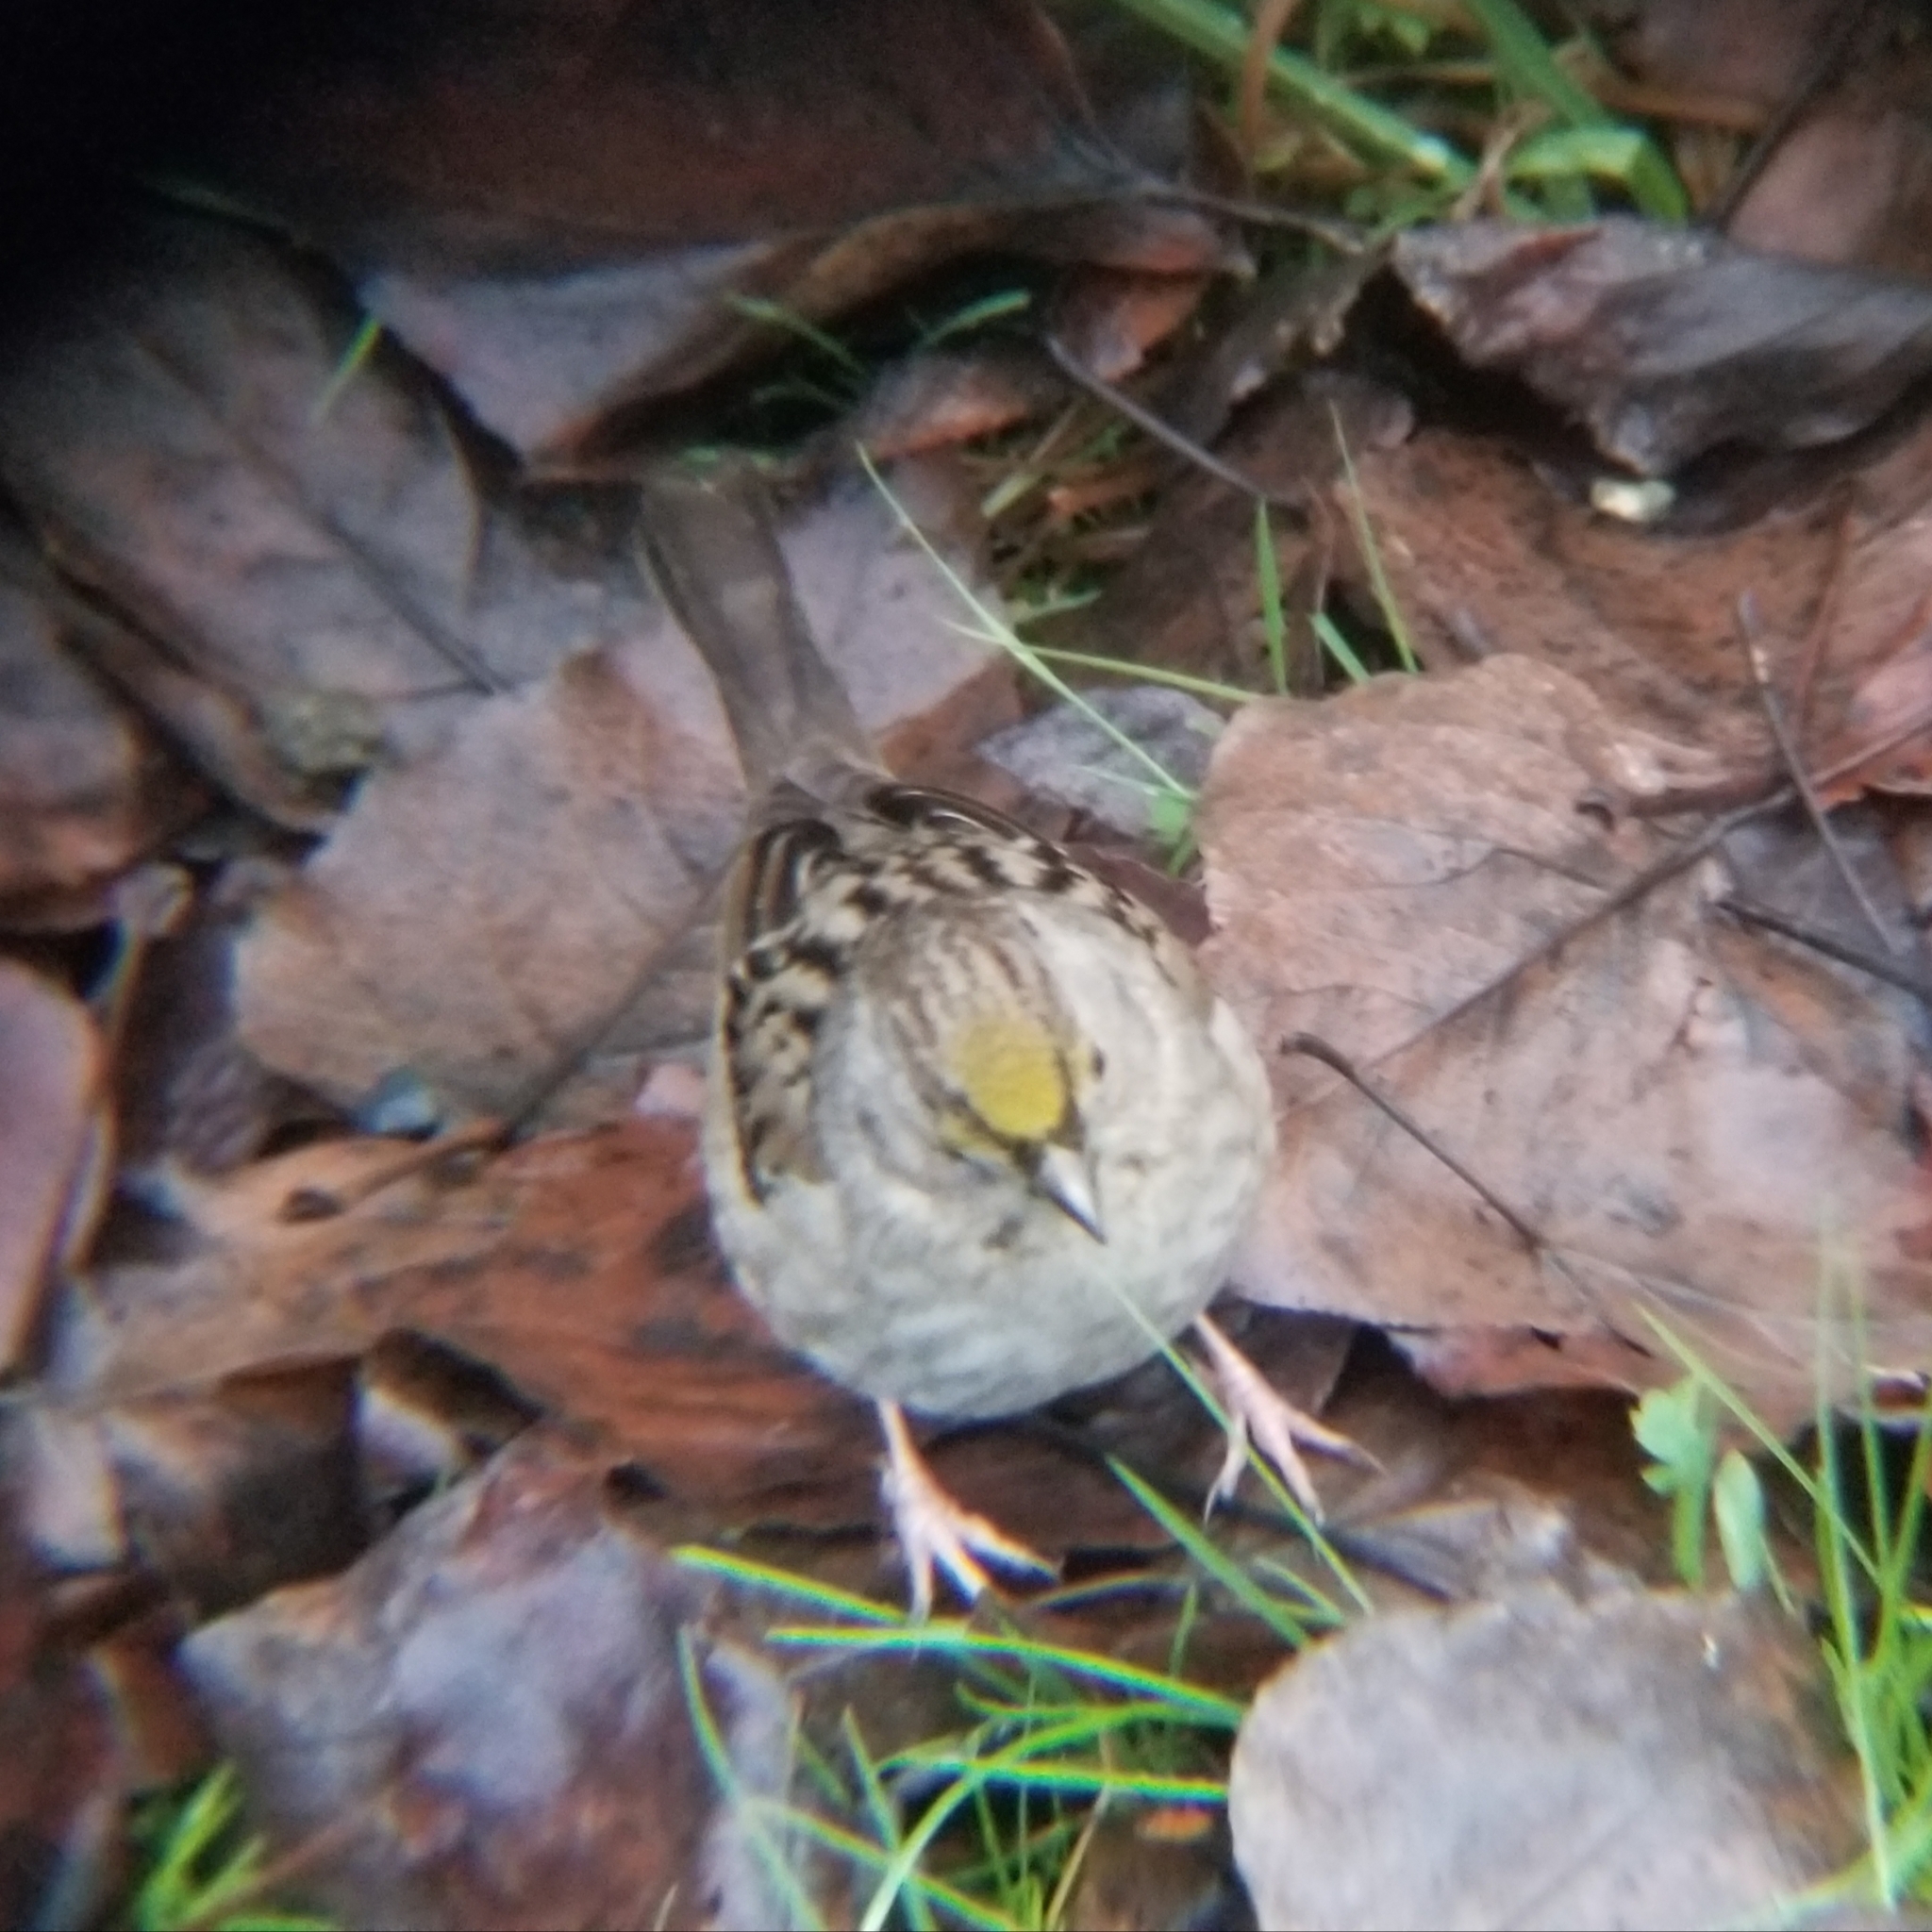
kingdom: Animalia
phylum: Chordata
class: Aves
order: Passeriformes
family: Passerellidae
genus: Zonotrichia
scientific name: Zonotrichia atricapilla
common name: Golden-crowned sparrow
